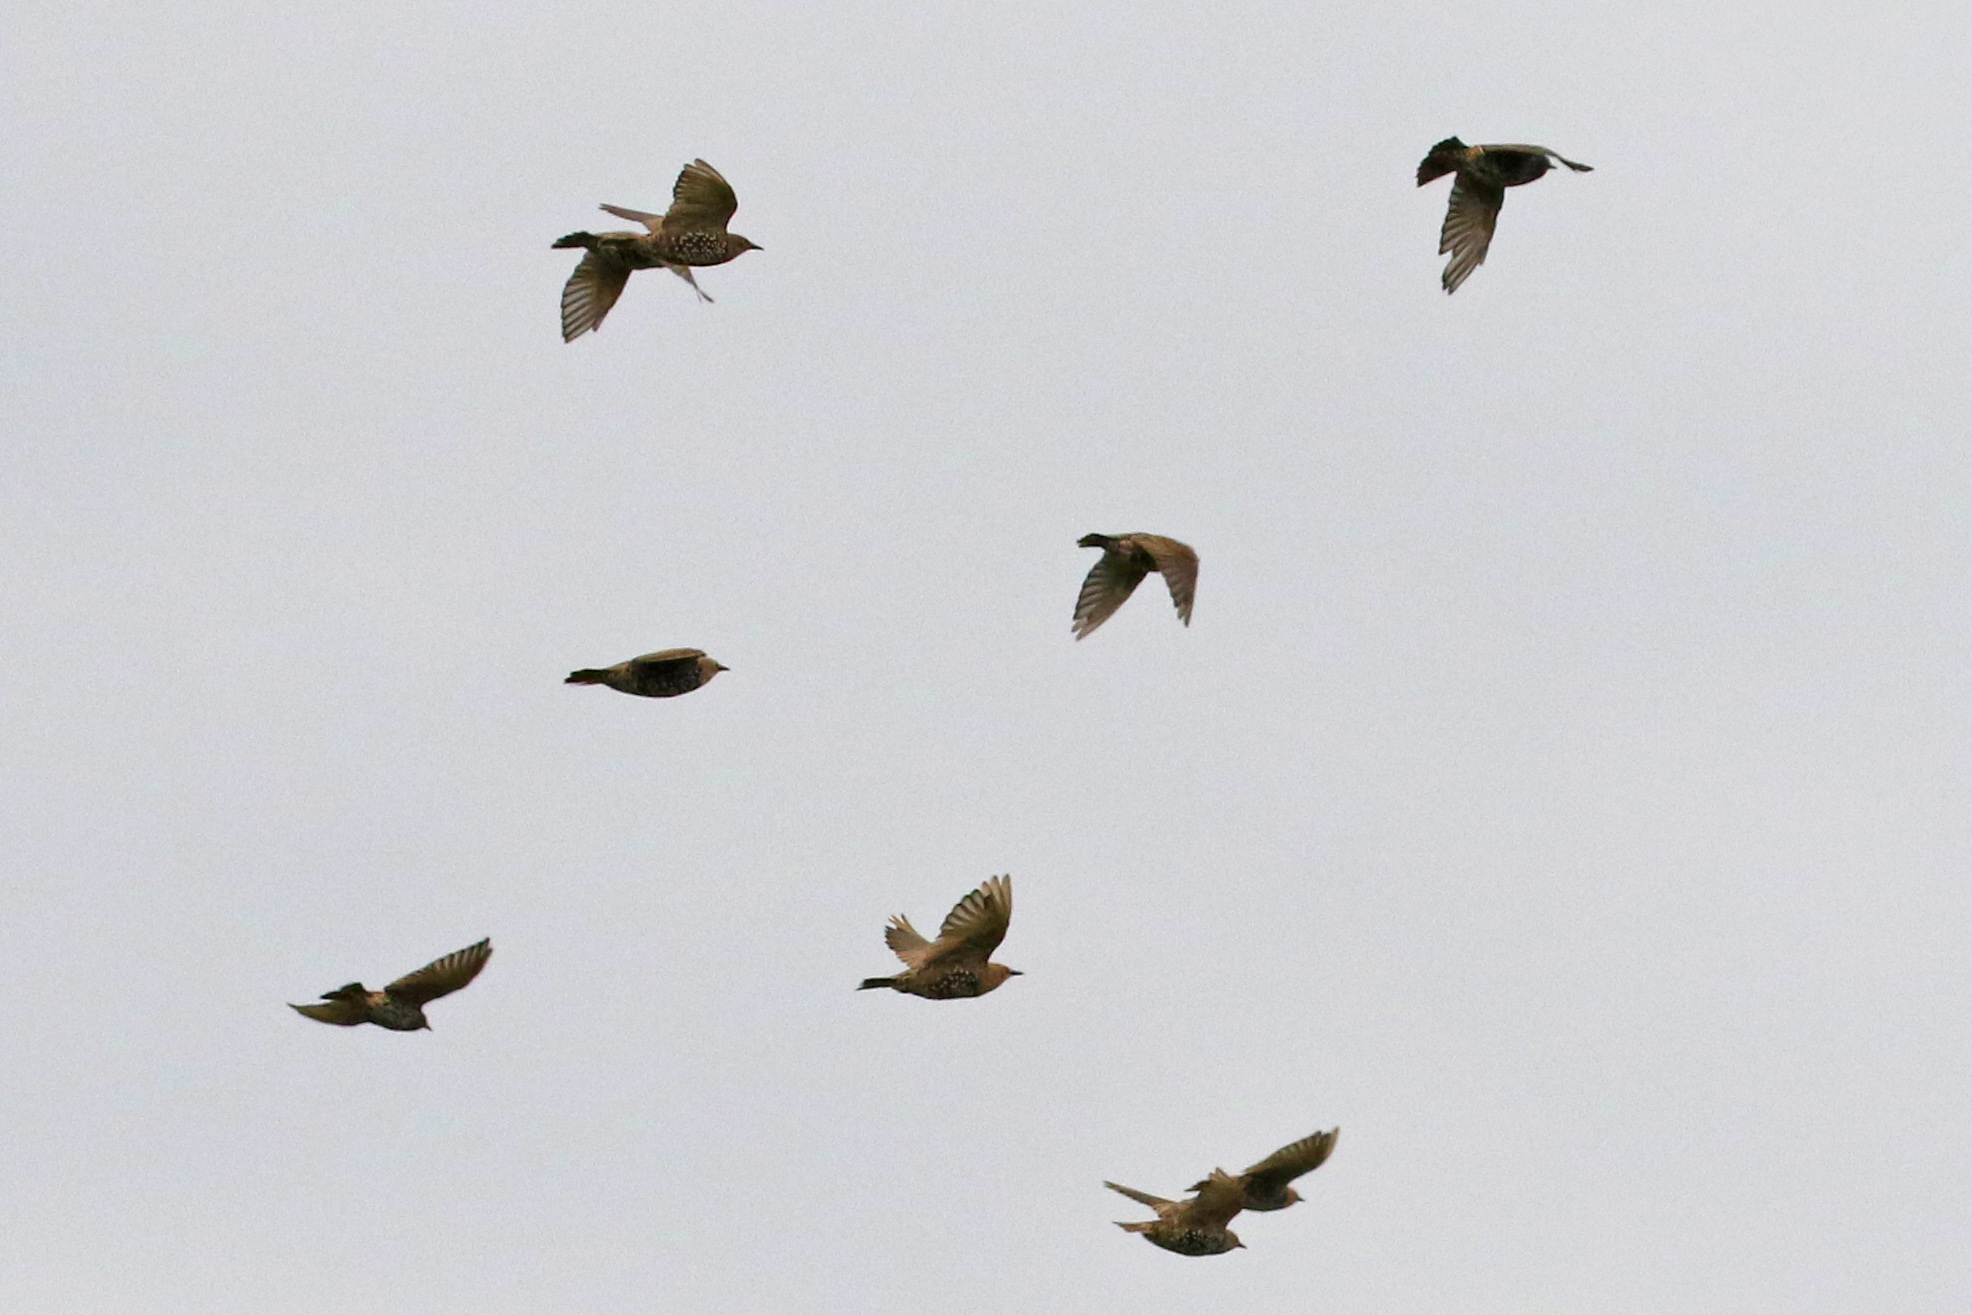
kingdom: Animalia
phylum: Chordata
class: Aves
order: Passeriformes
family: Sturnidae
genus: Sturnus
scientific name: Sturnus vulgaris
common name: Common starling
